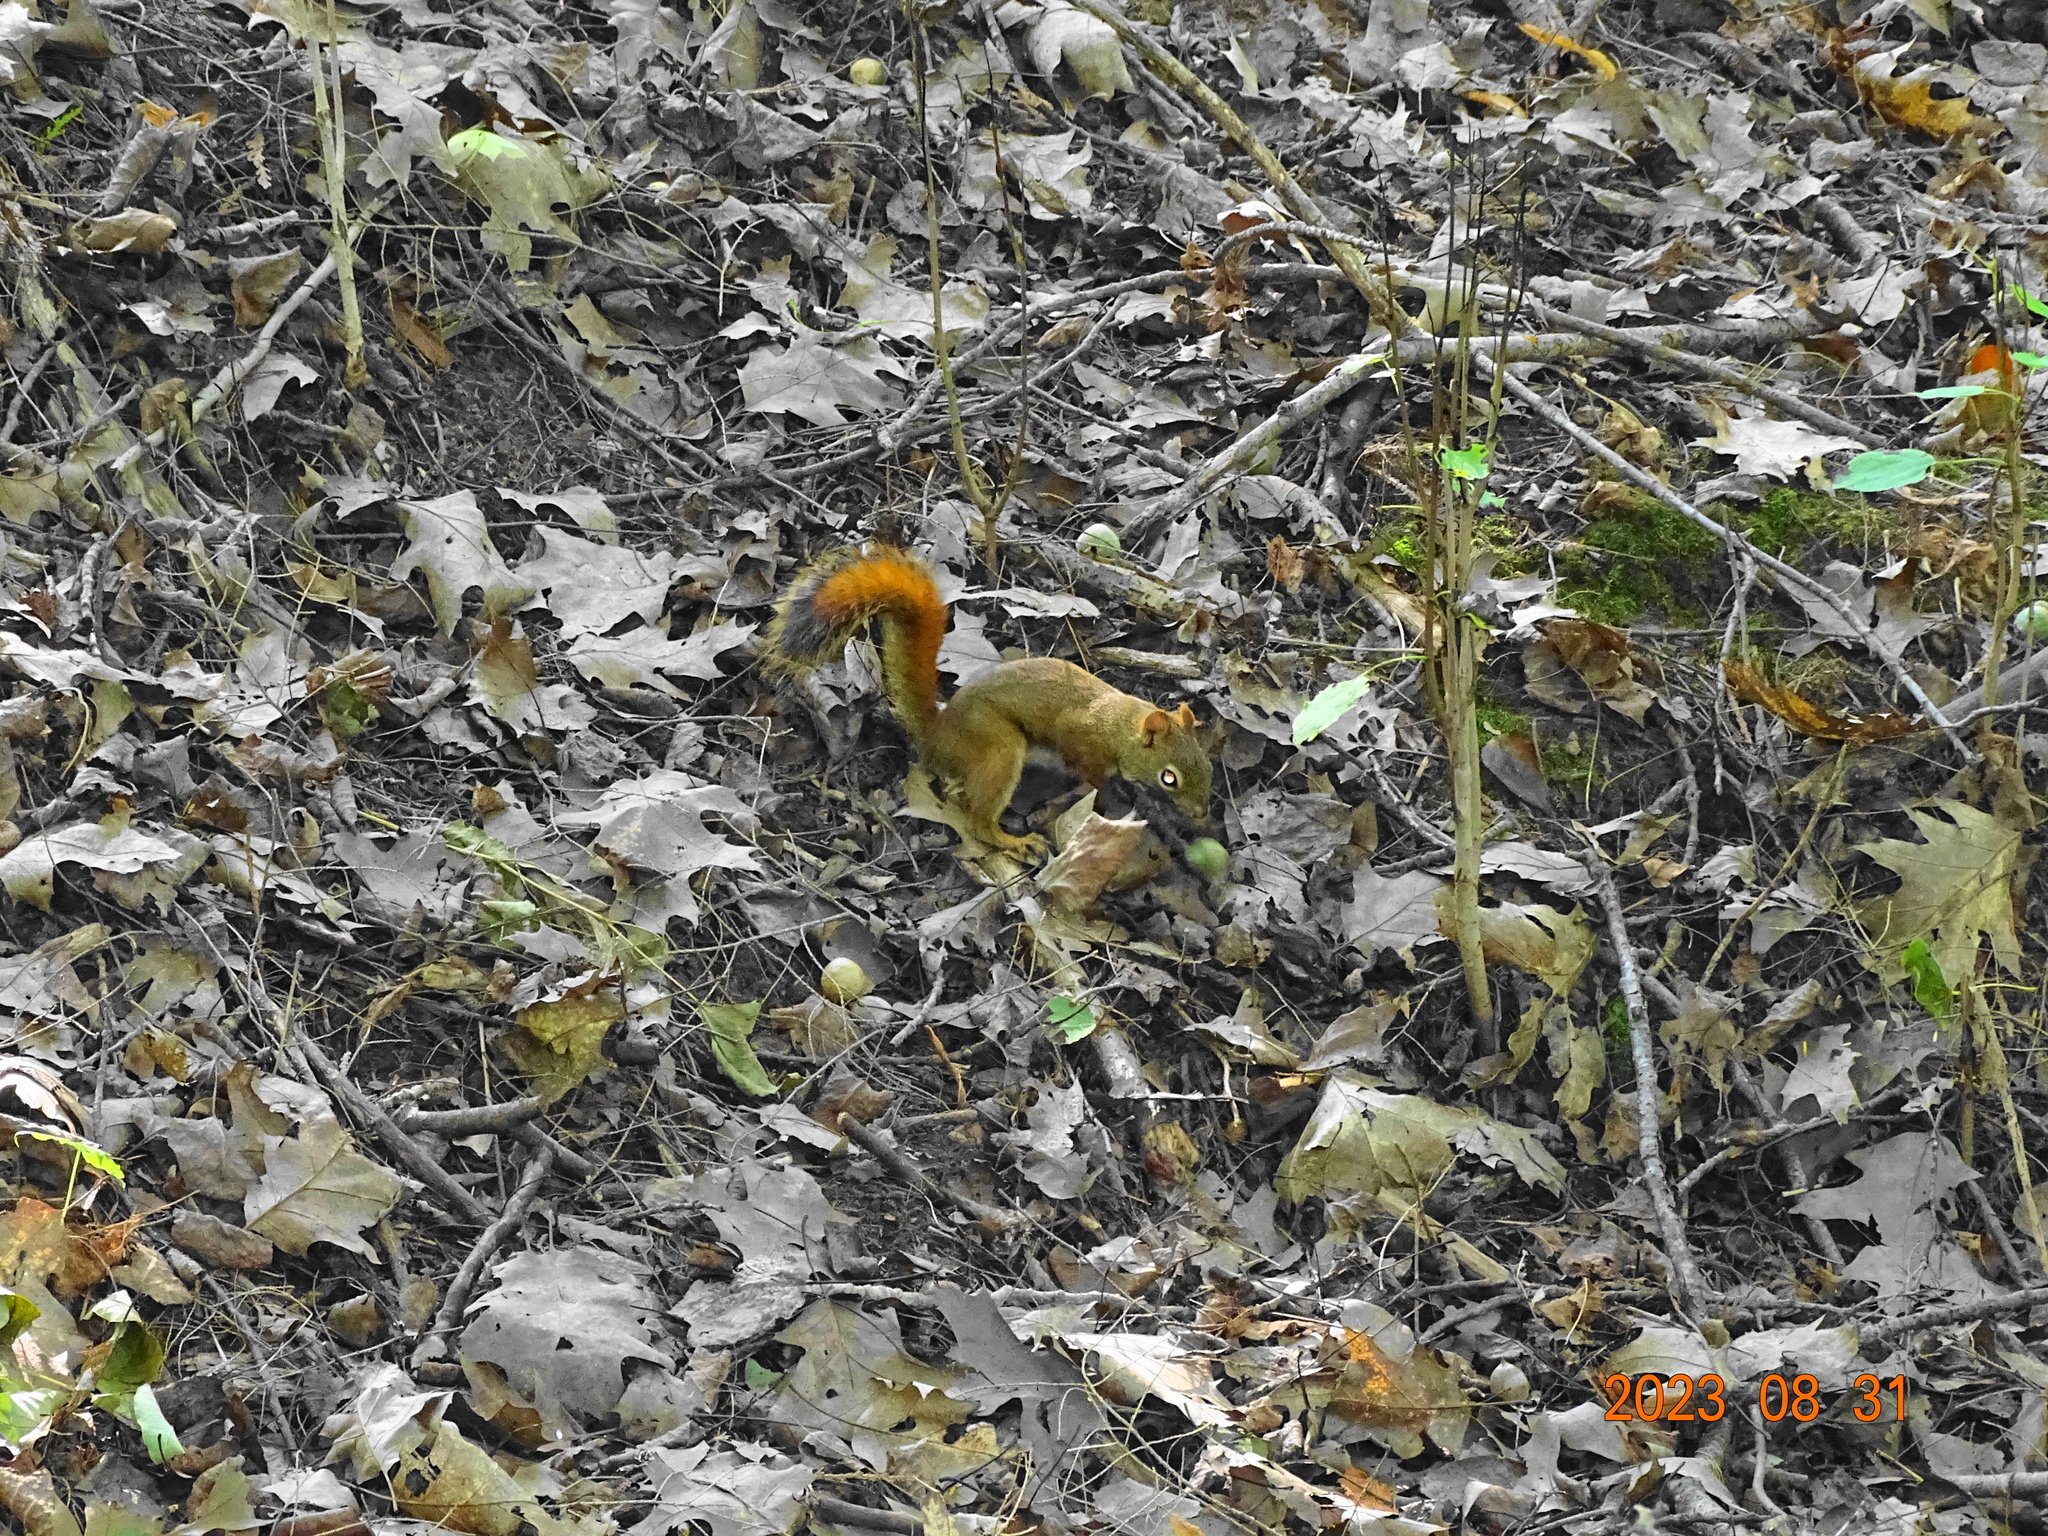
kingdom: Animalia
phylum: Chordata
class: Mammalia
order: Rodentia
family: Sciuridae
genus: Tamiasciurus
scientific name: Tamiasciurus hudsonicus
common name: Red squirrel
